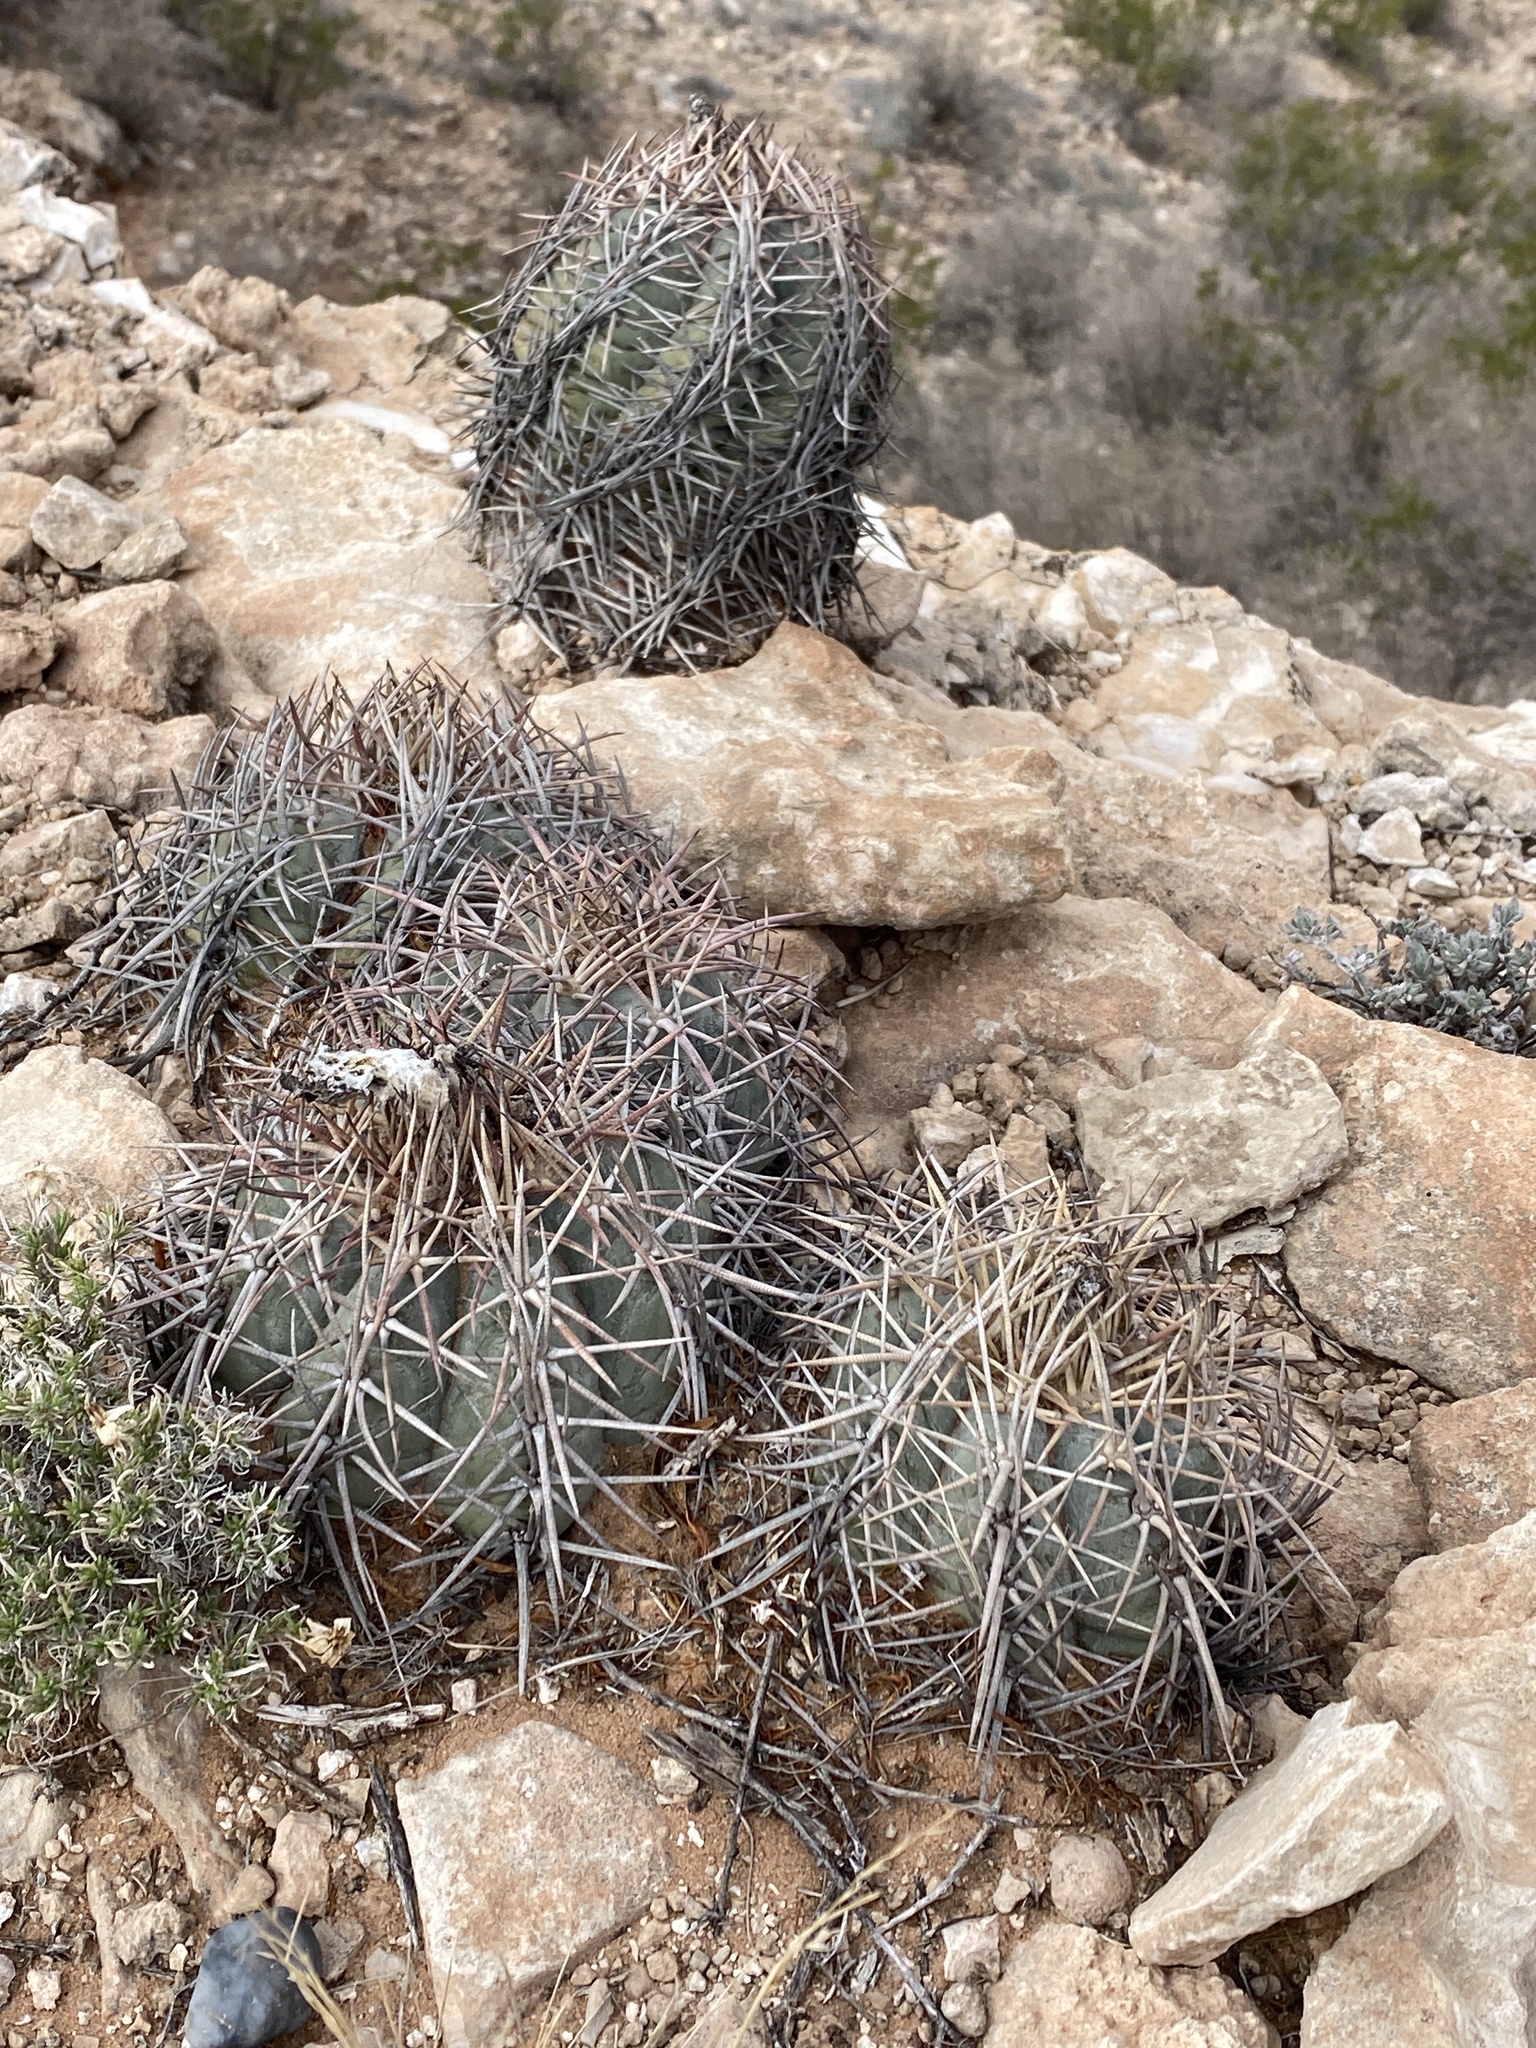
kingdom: Plantae
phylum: Tracheophyta
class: Magnoliopsida
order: Caryophyllales
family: Cactaceae
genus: Echinocactus
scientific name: Echinocactus horizonthalonius
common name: Devilshead
